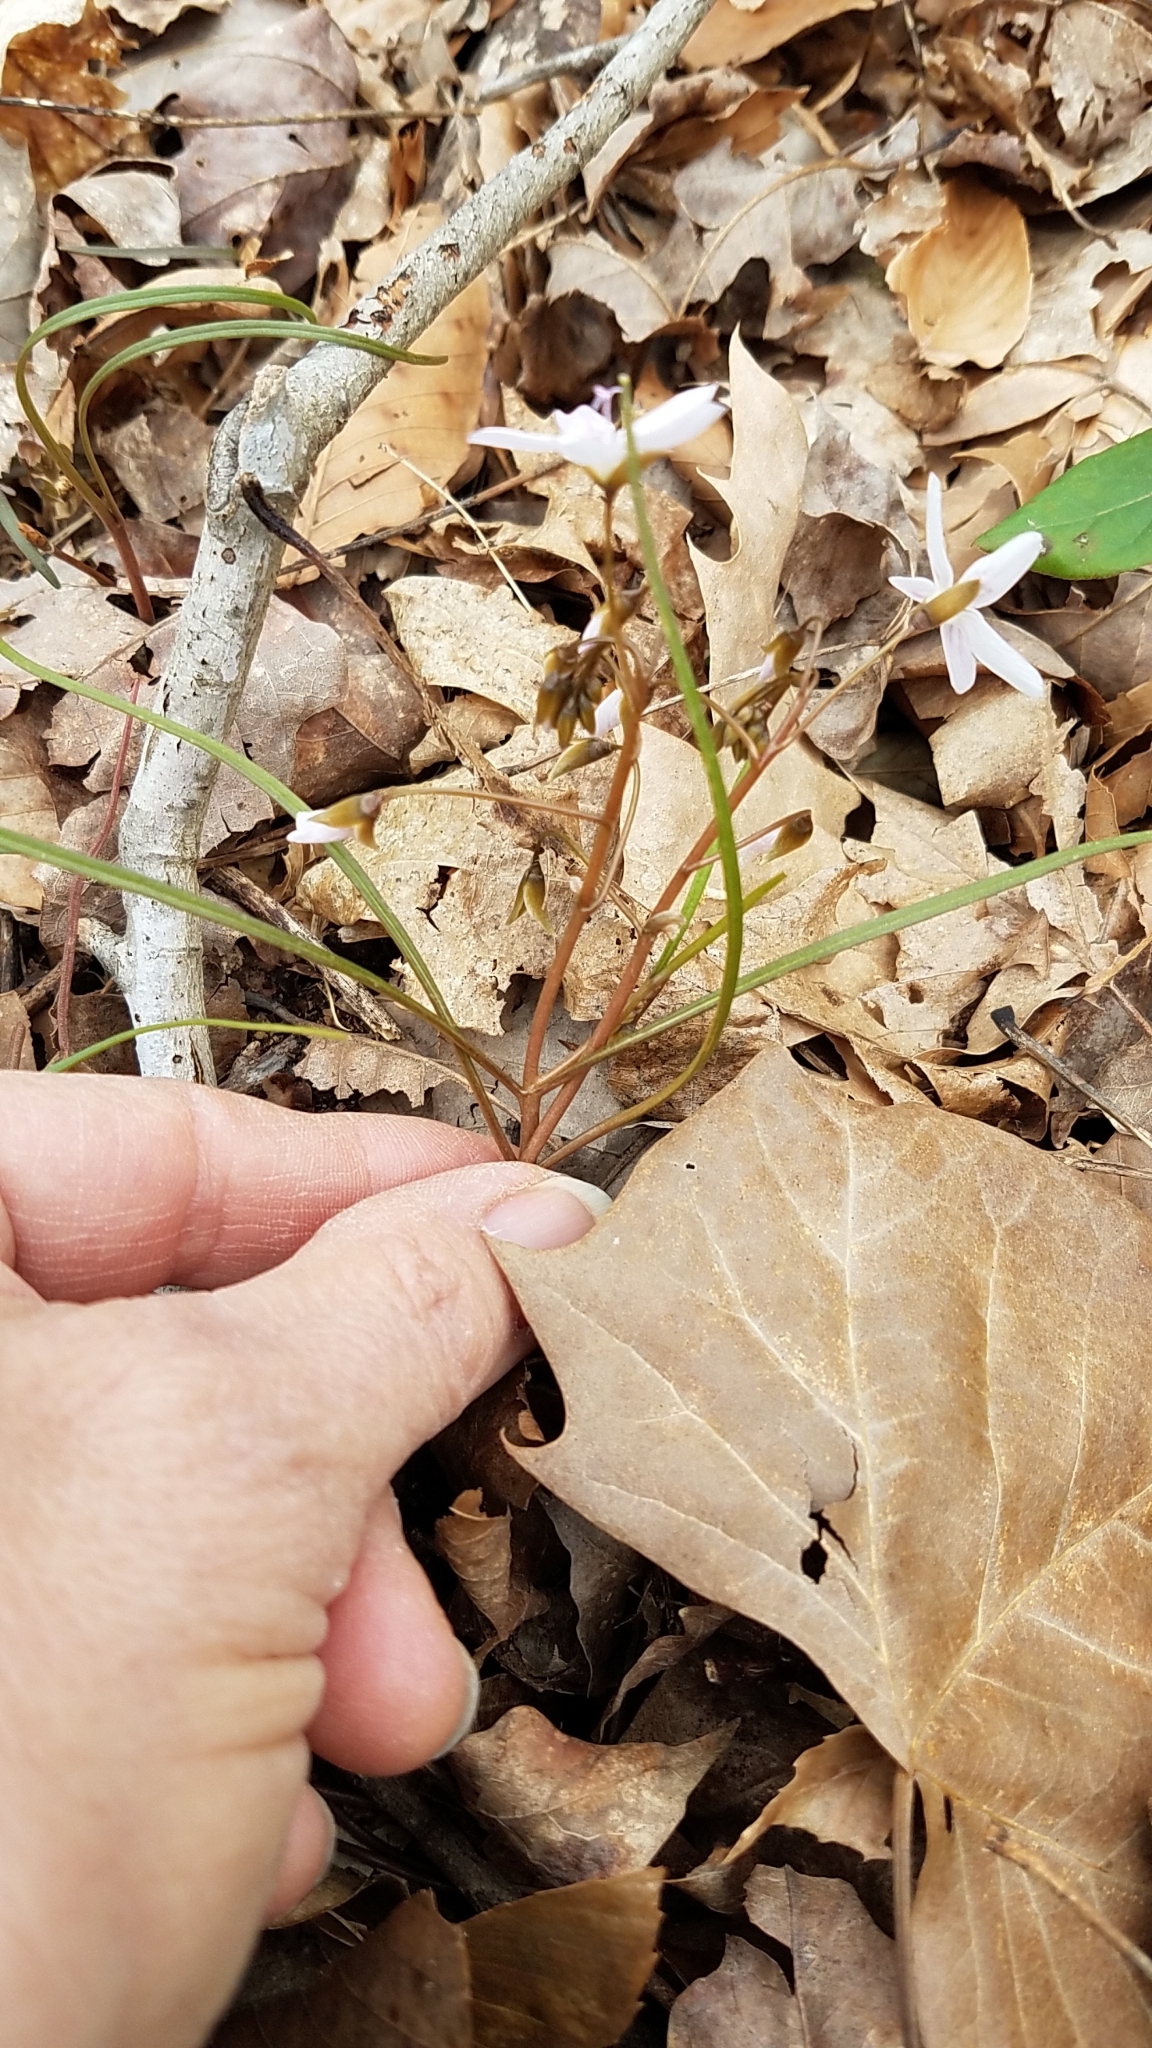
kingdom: Plantae
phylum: Tracheophyta
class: Magnoliopsida
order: Brassicales
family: Brassicaceae
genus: Cardamine
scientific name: Cardamine diphylla
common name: Broad-leaved toothwort
